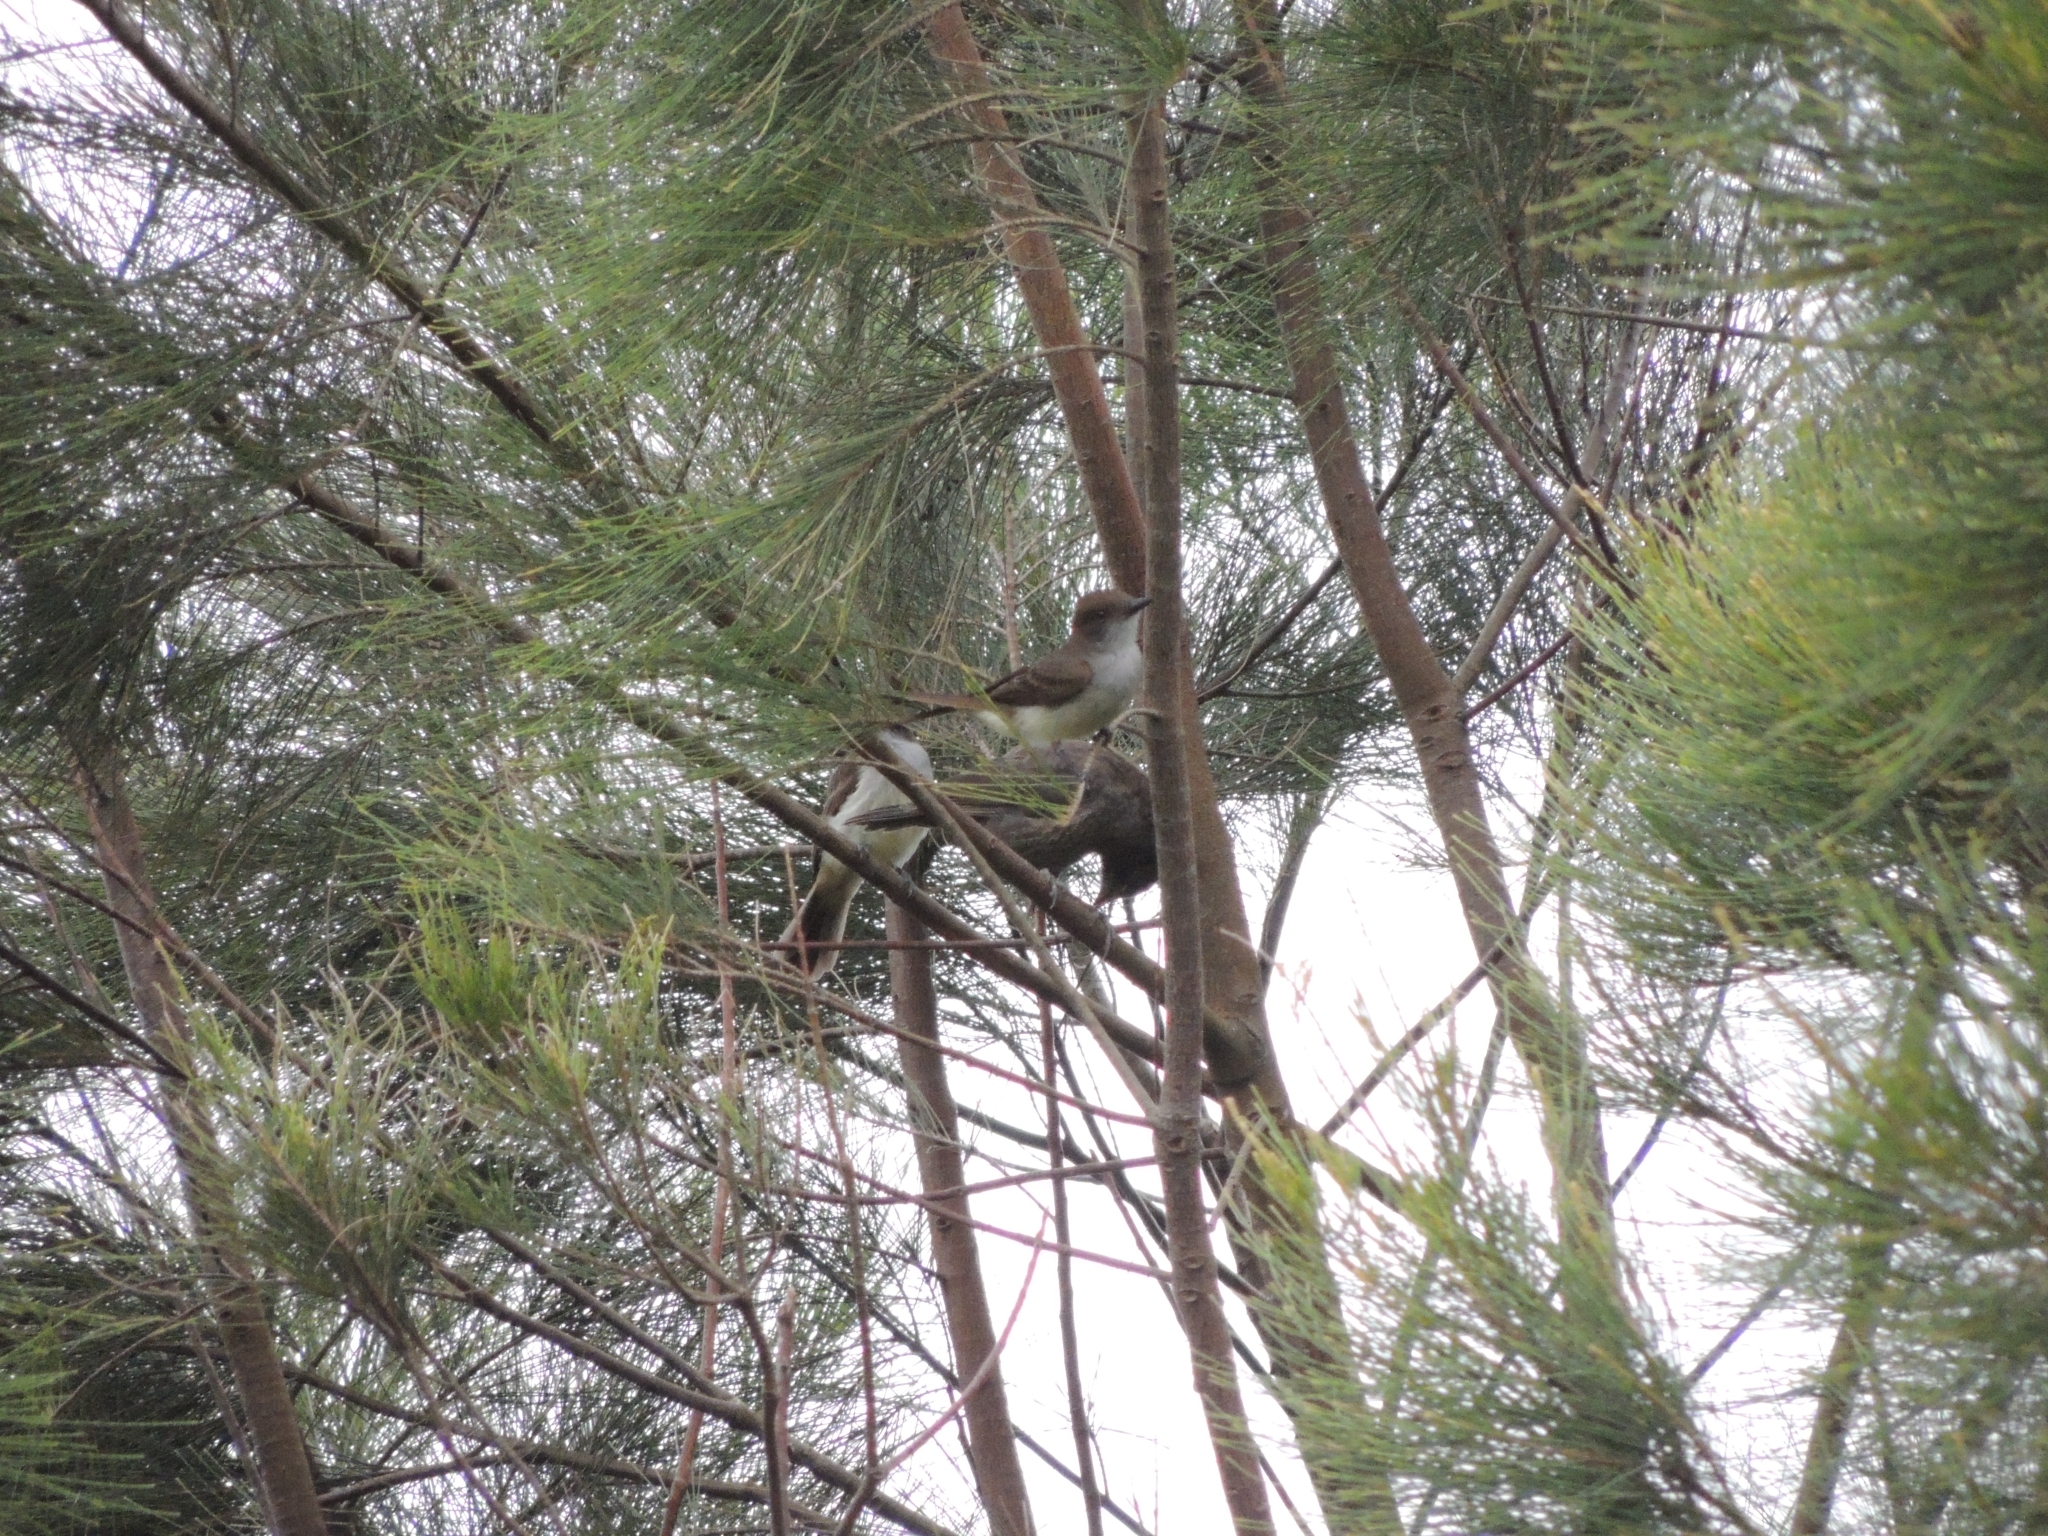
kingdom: Animalia
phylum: Chordata
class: Aves
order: Passeriformes
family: Tyrannidae
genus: Myiarchus
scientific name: Myiarchus swainsoni
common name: Swainson's flycatcher
